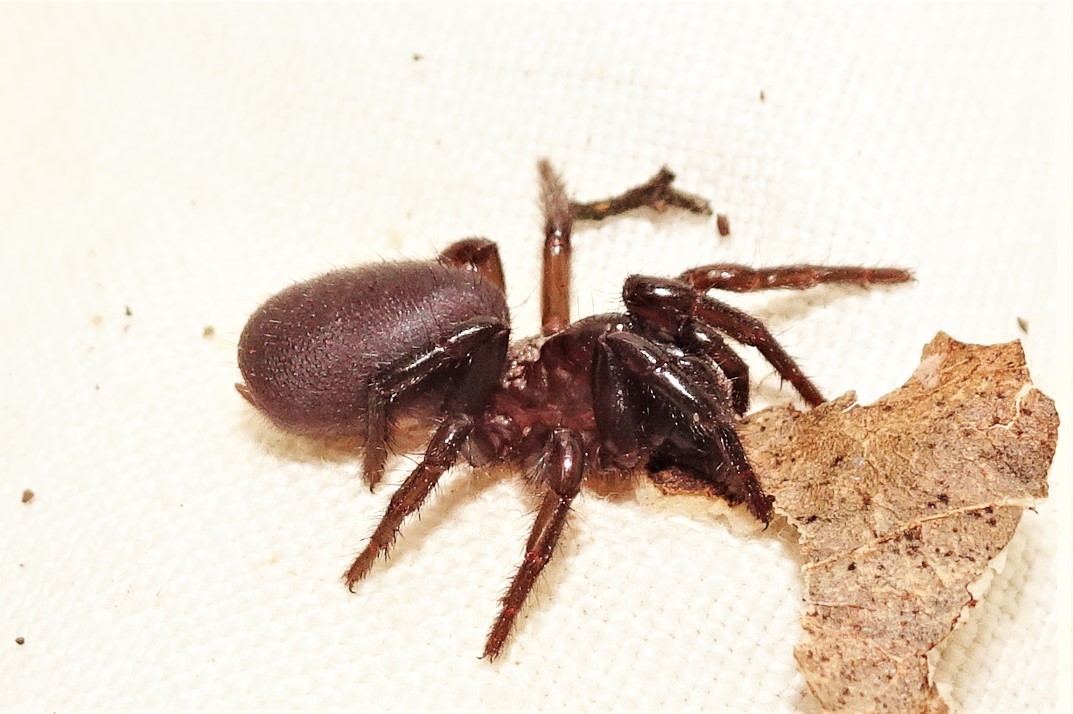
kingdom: Animalia
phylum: Arthropoda
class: Arachnida
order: Araneae
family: Atracidae
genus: Hadronyche
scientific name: Hadronyche infensa
